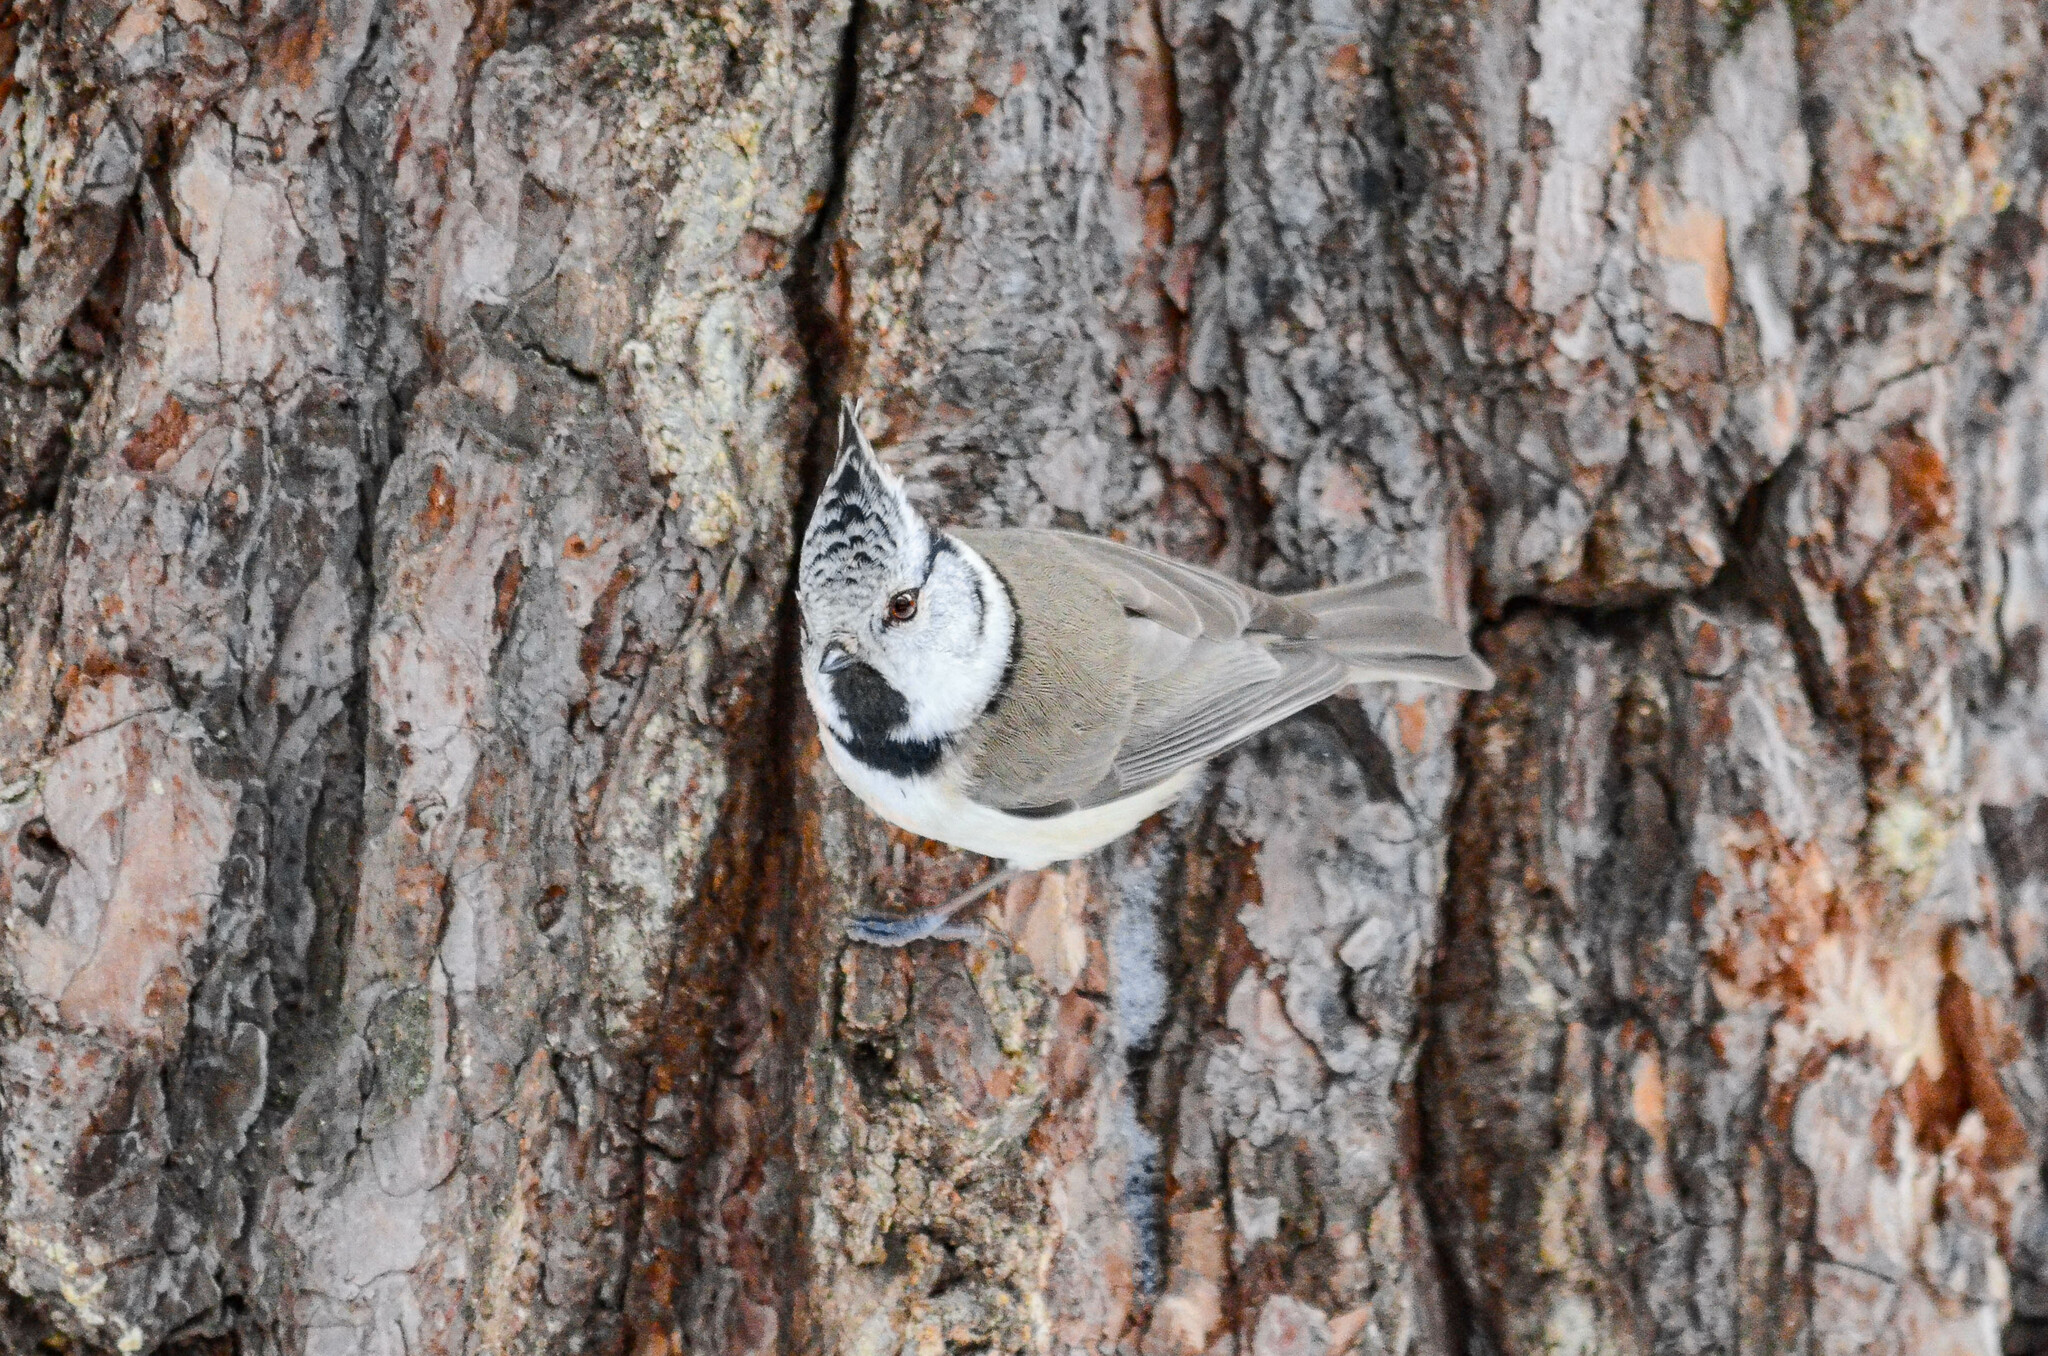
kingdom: Animalia
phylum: Chordata
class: Aves
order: Passeriformes
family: Paridae
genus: Lophophanes
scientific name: Lophophanes cristatus
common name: European crested tit
